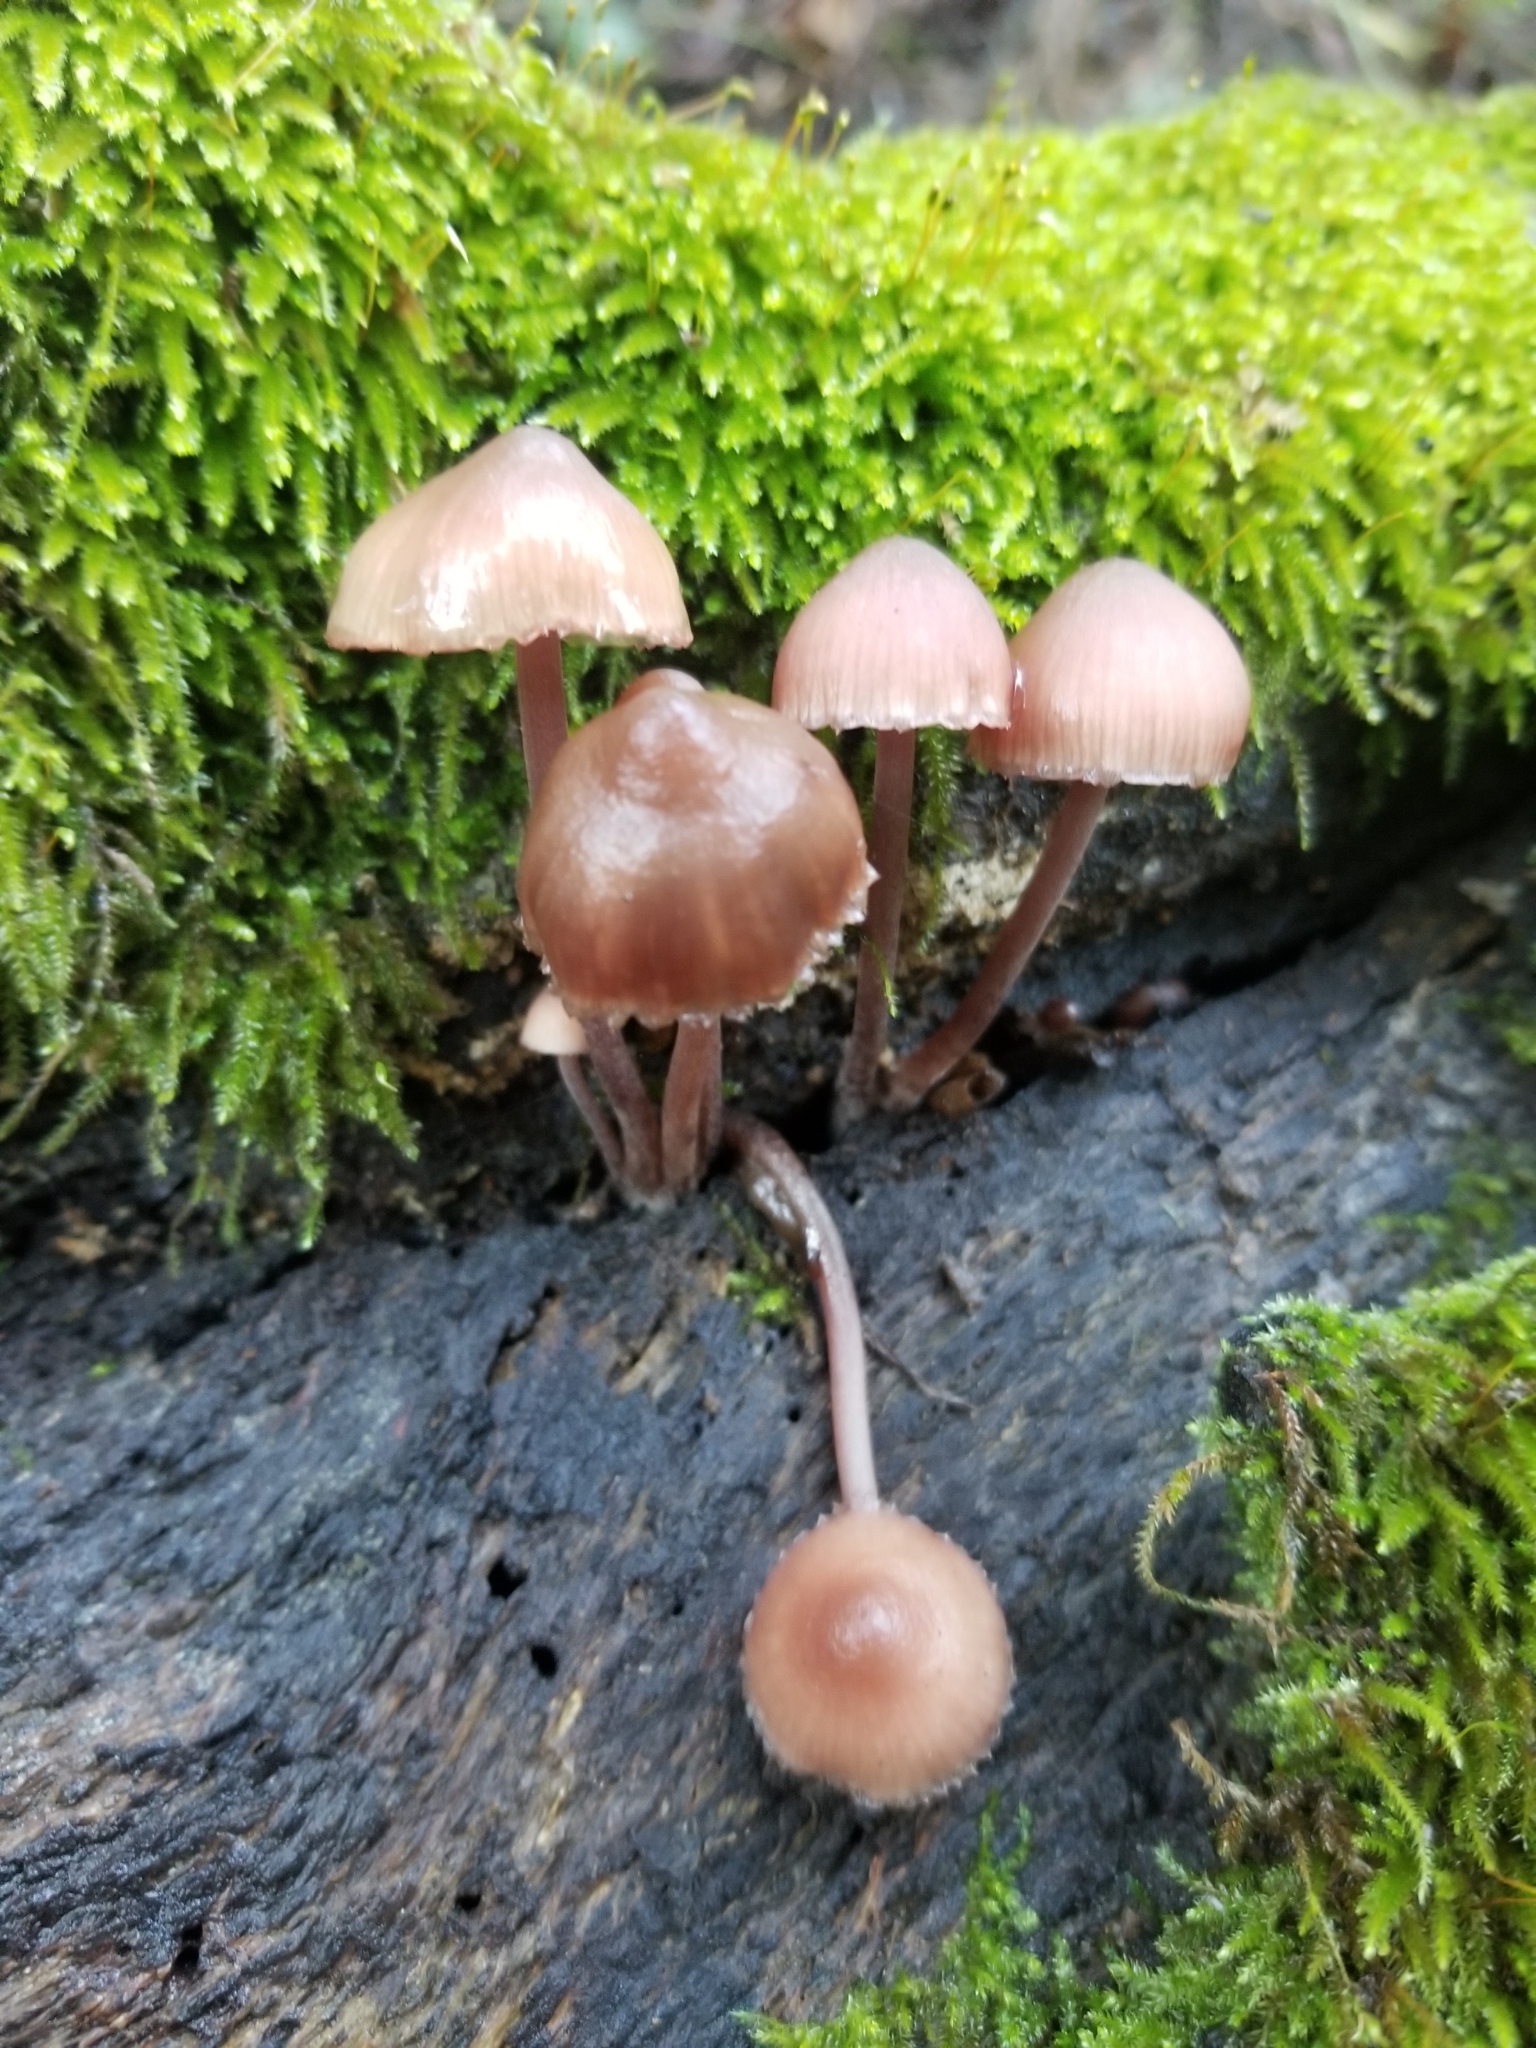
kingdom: Fungi
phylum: Basidiomycota
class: Agaricomycetes
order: Agaricales
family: Mycenaceae
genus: Mycena
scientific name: Mycena haematopus
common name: Burgundydrop bonnet
